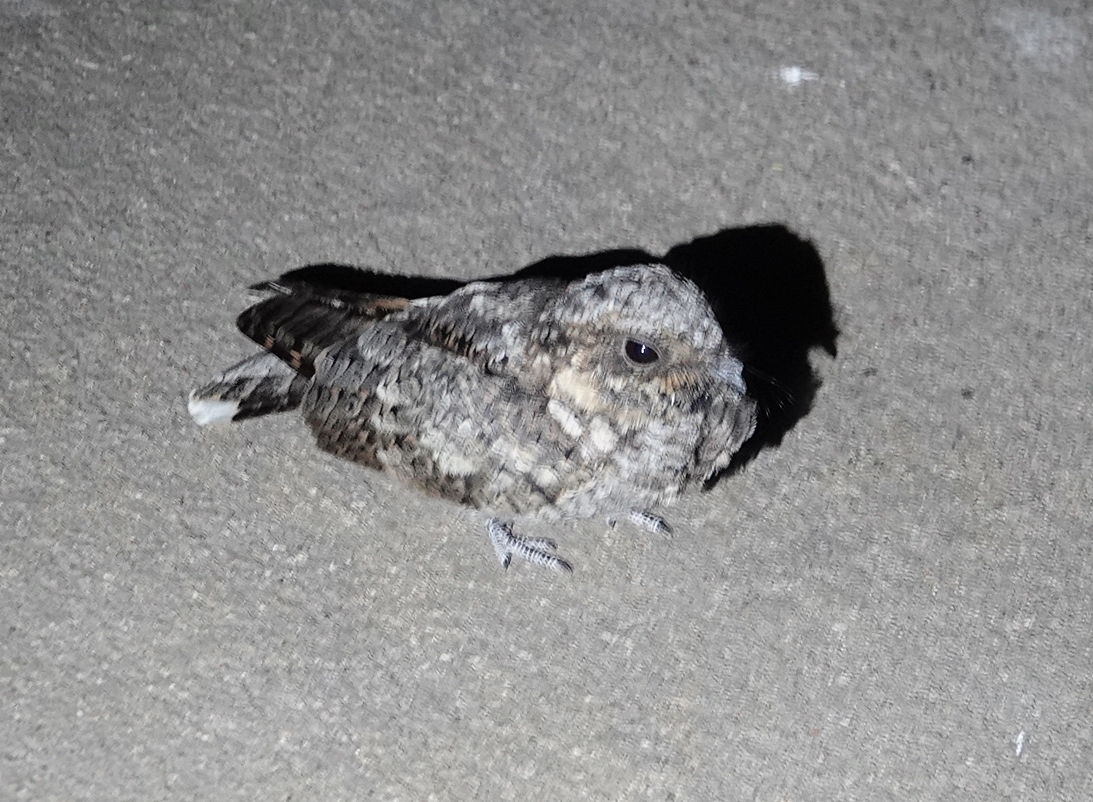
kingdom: Animalia
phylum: Chordata
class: Aves
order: Caprimulgiformes
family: Caprimulgidae
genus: Phalaenoptilus
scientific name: Phalaenoptilus nuttallii
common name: Common poorwill
